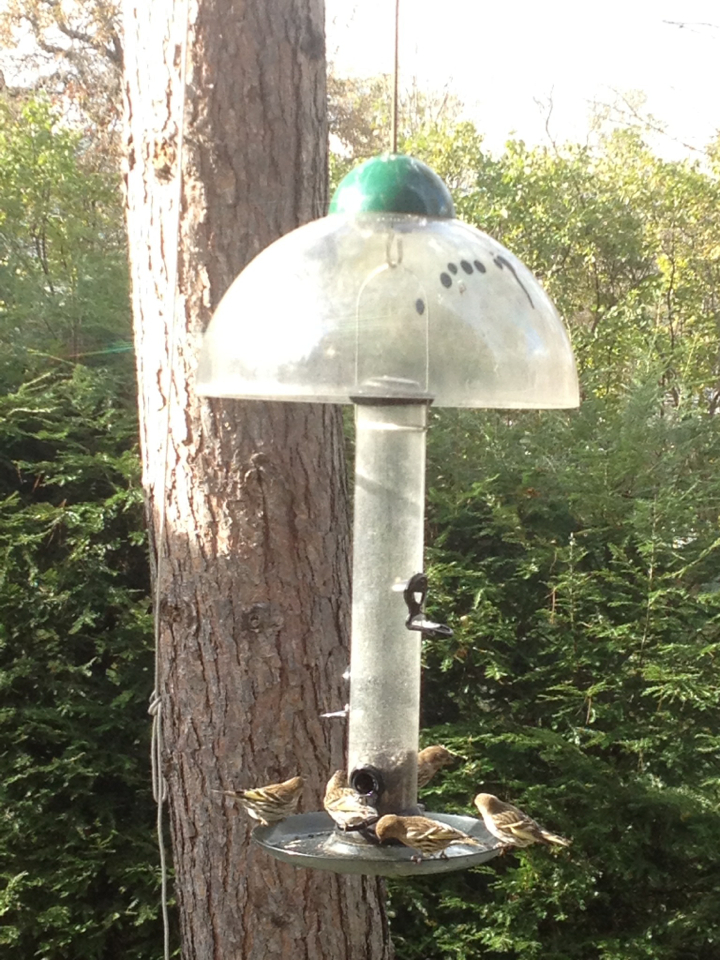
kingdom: Animalia
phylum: Chordata
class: Aves
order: Passeriformes
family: Fringillidae
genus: Spinus
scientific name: Spinus pinus
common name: Pine siskin
